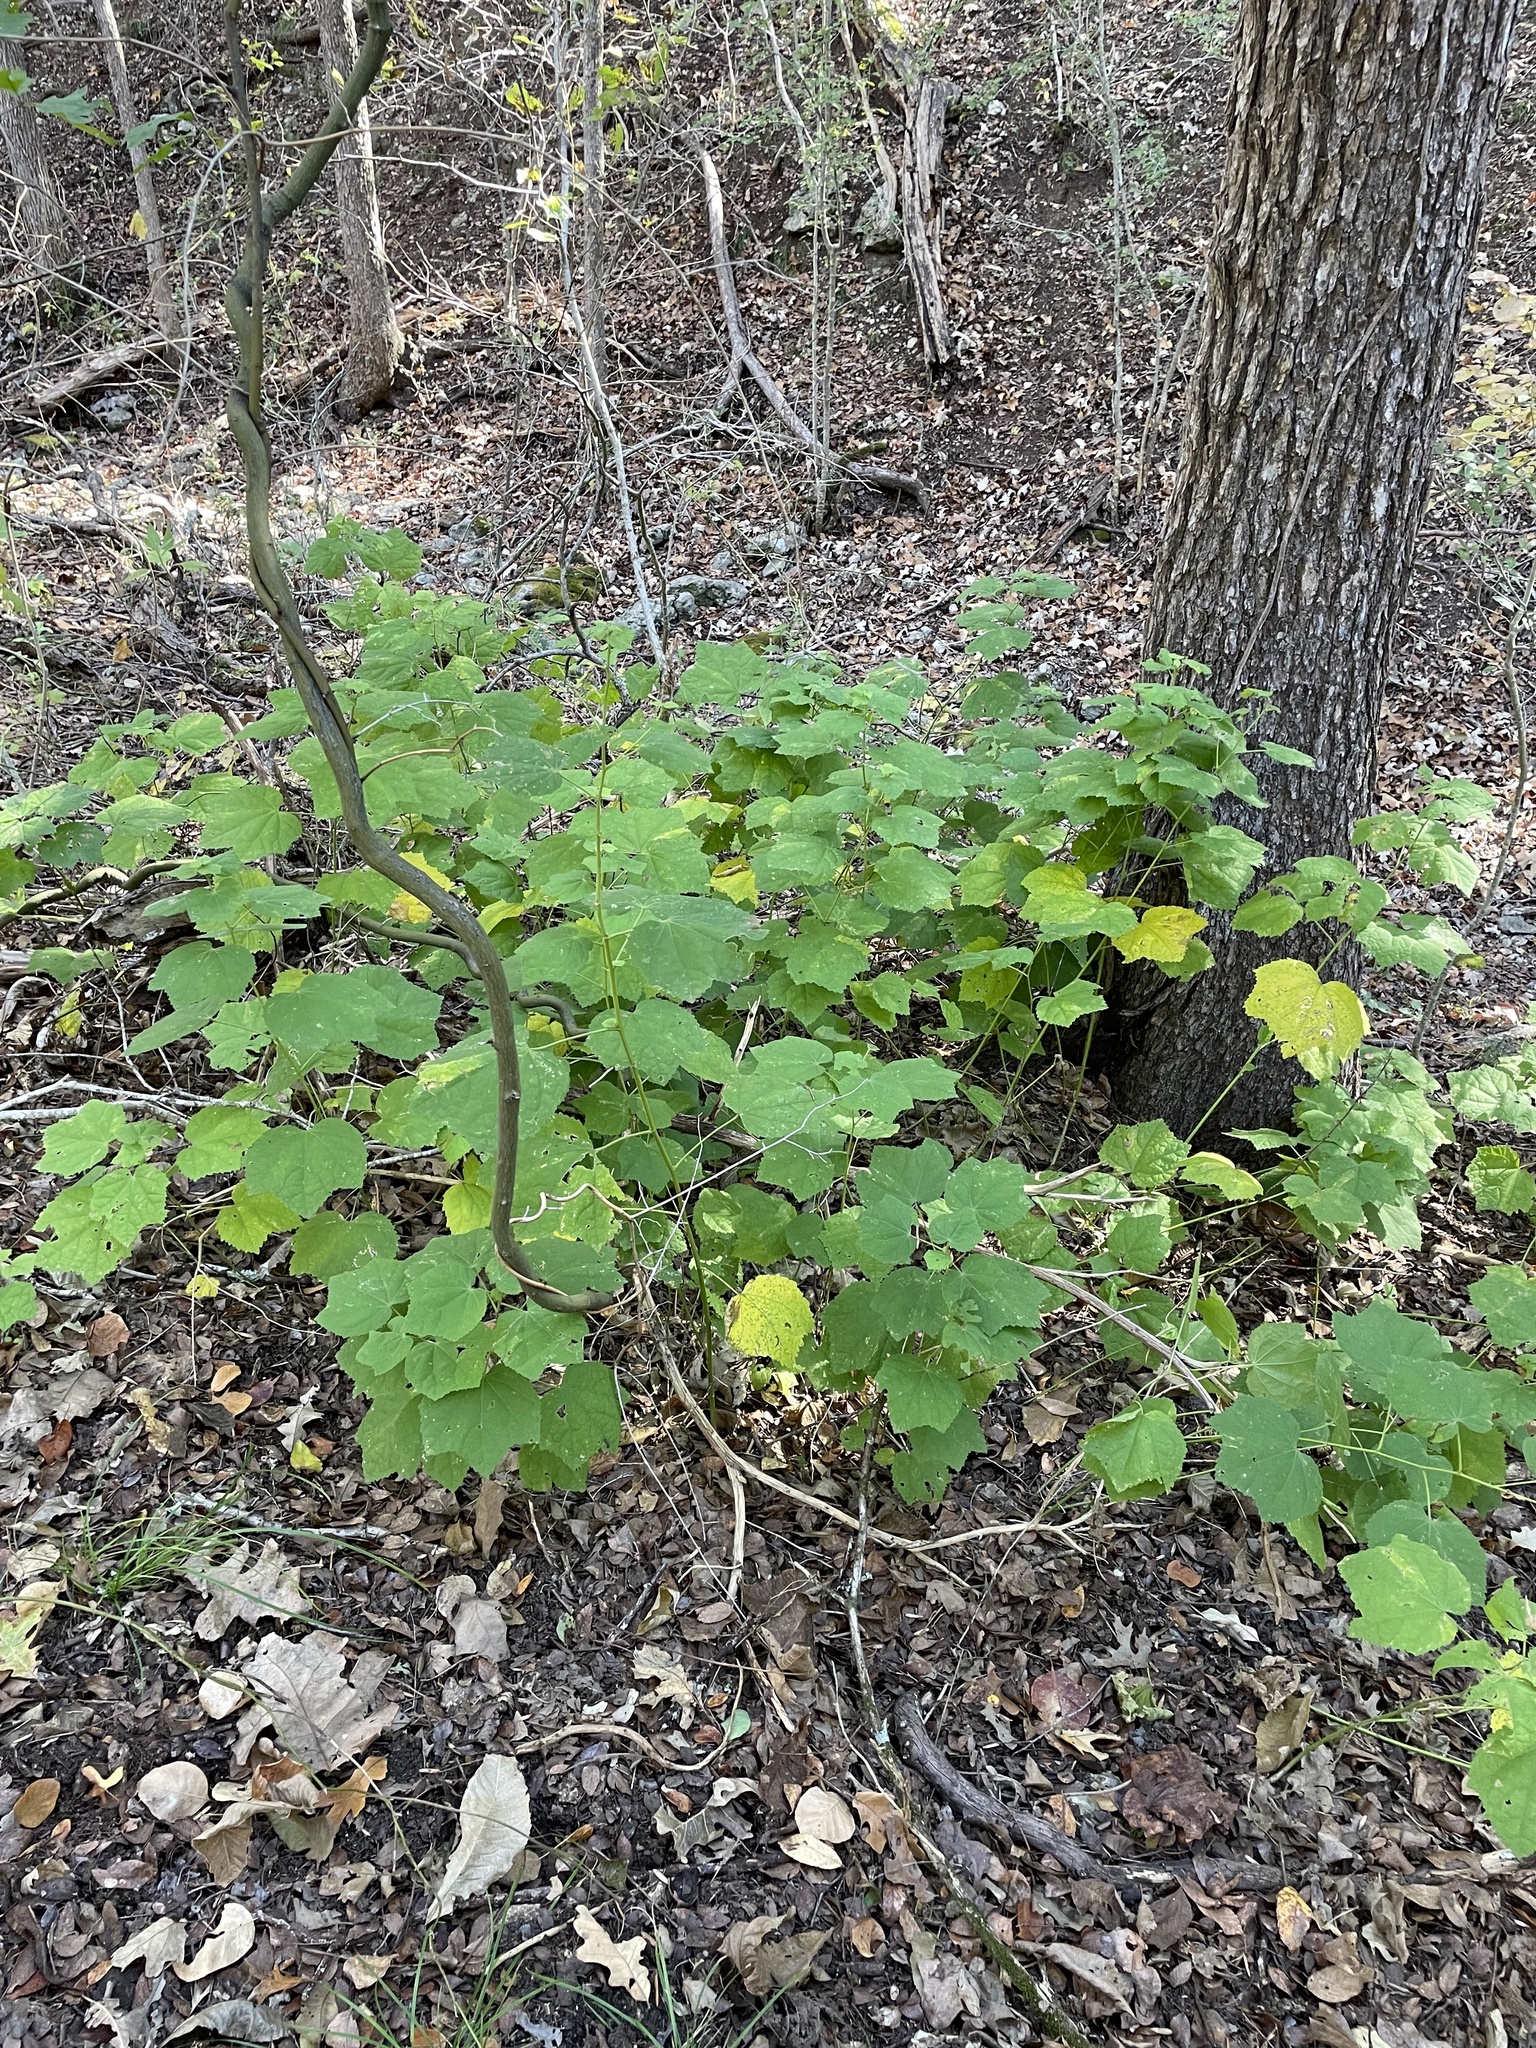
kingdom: Plantae
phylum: Tracheophyta
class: Magnoliopsida
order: Malvales
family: Malvaceae
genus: Malvaviscus
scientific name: Malvaviscus arboreus
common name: Wax mallow
